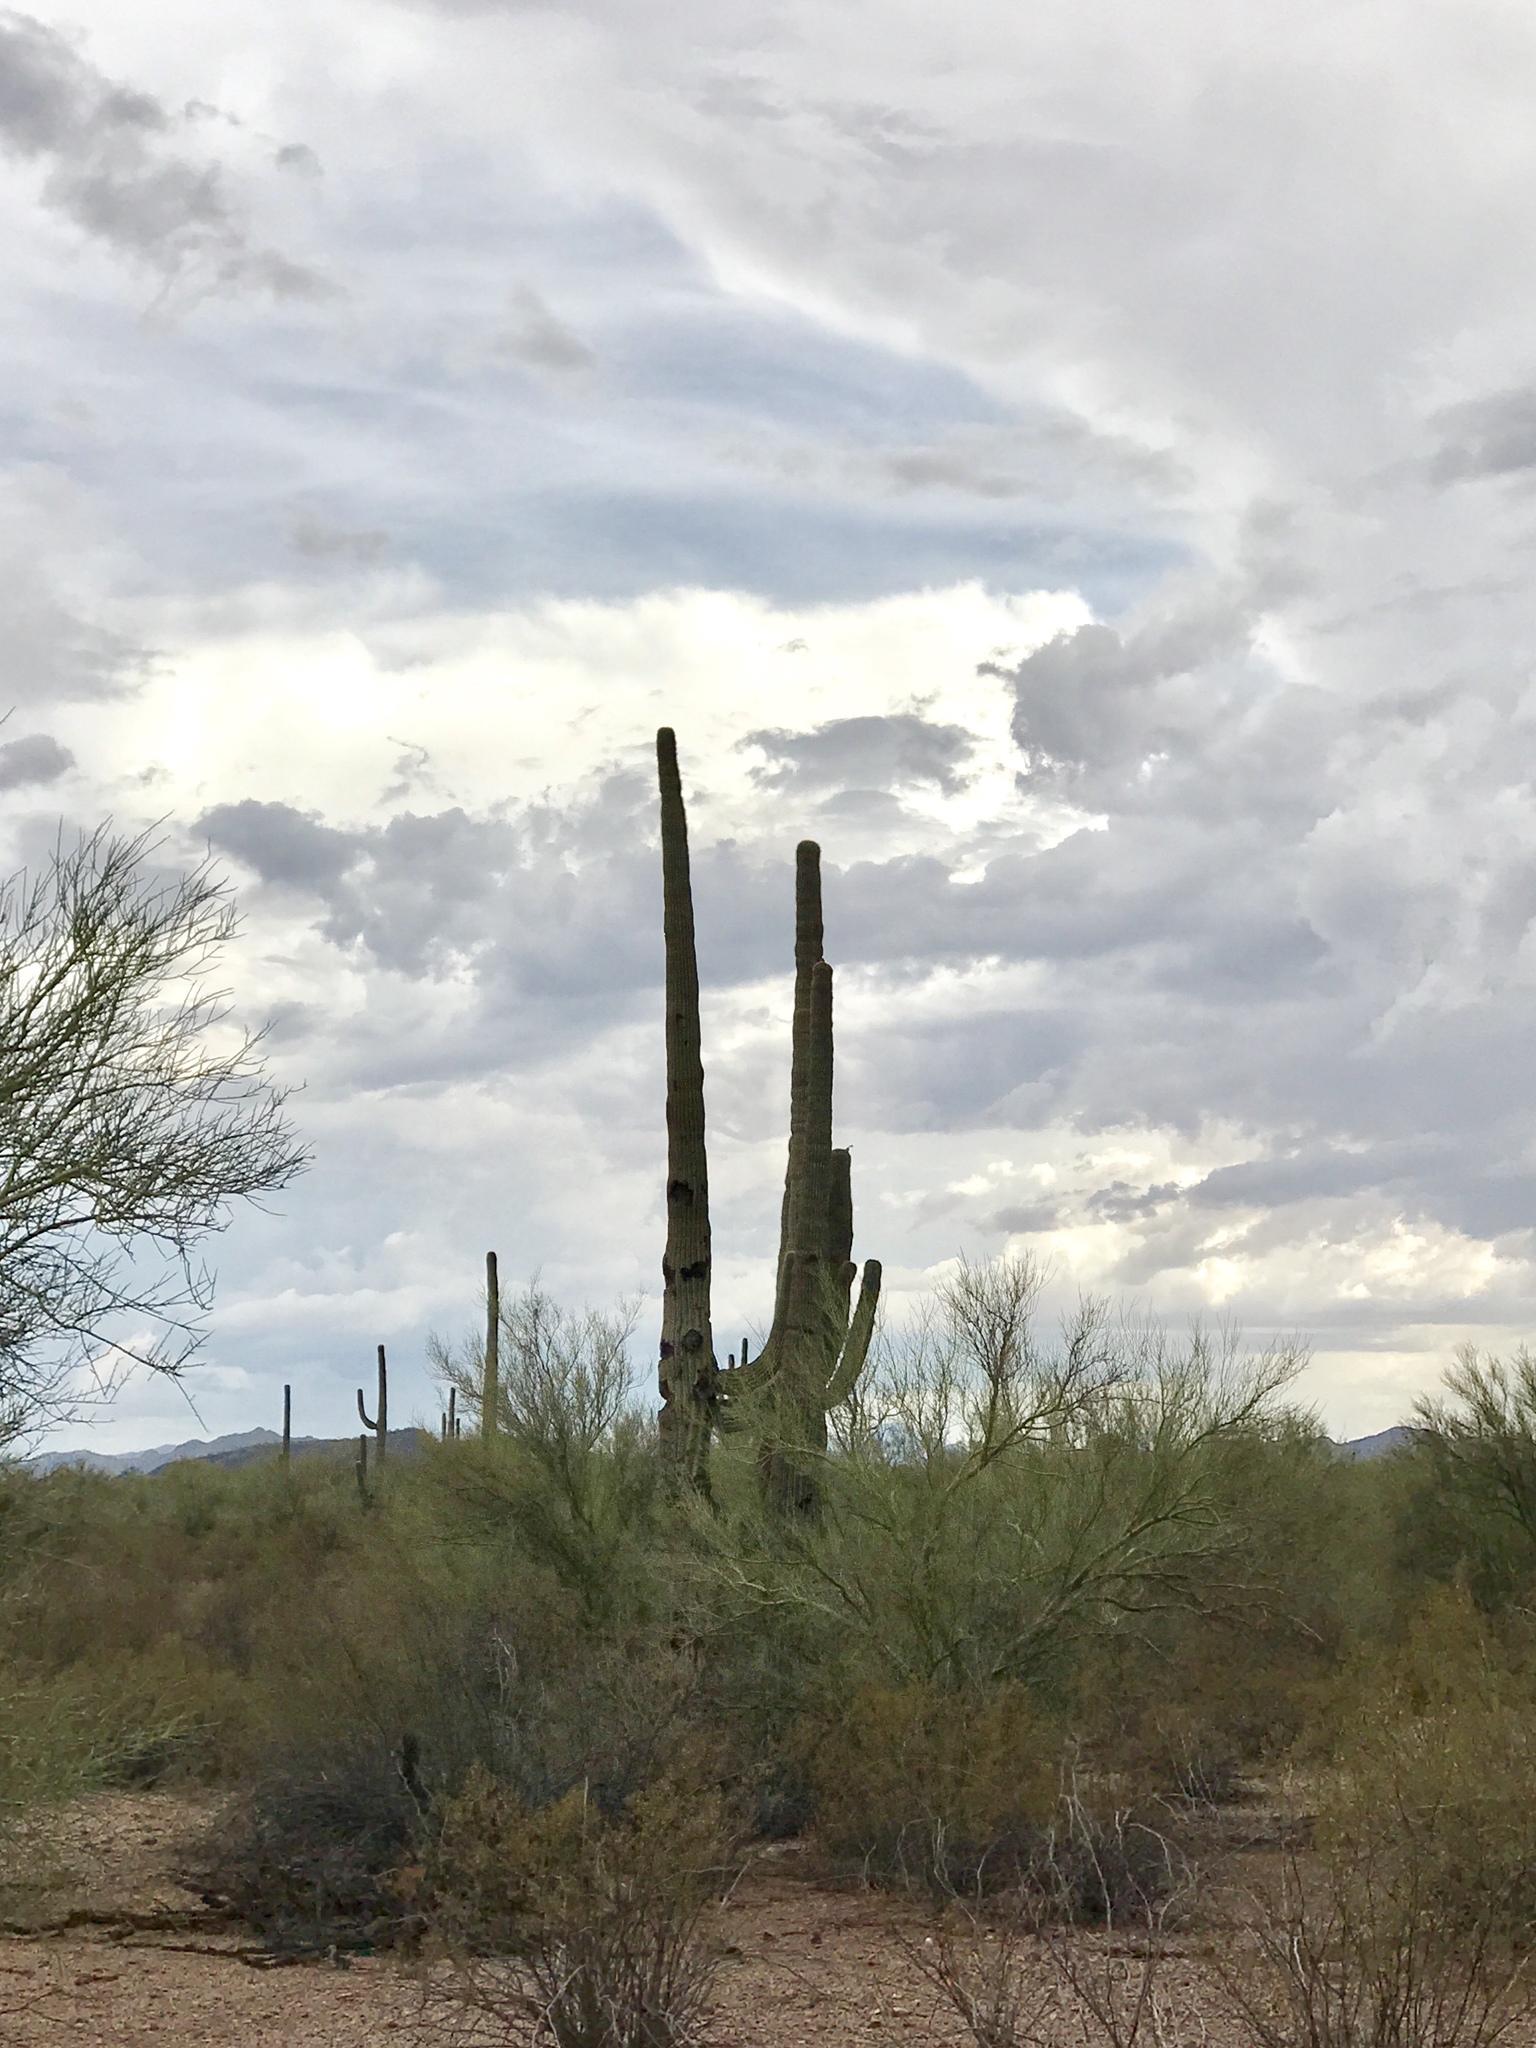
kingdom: Plantae
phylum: Tracheophyta
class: Magnoliopsida
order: Caryophyllales
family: Cactaceae
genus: Carnegiea
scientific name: Carnegiea gigantea
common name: Saguaro
